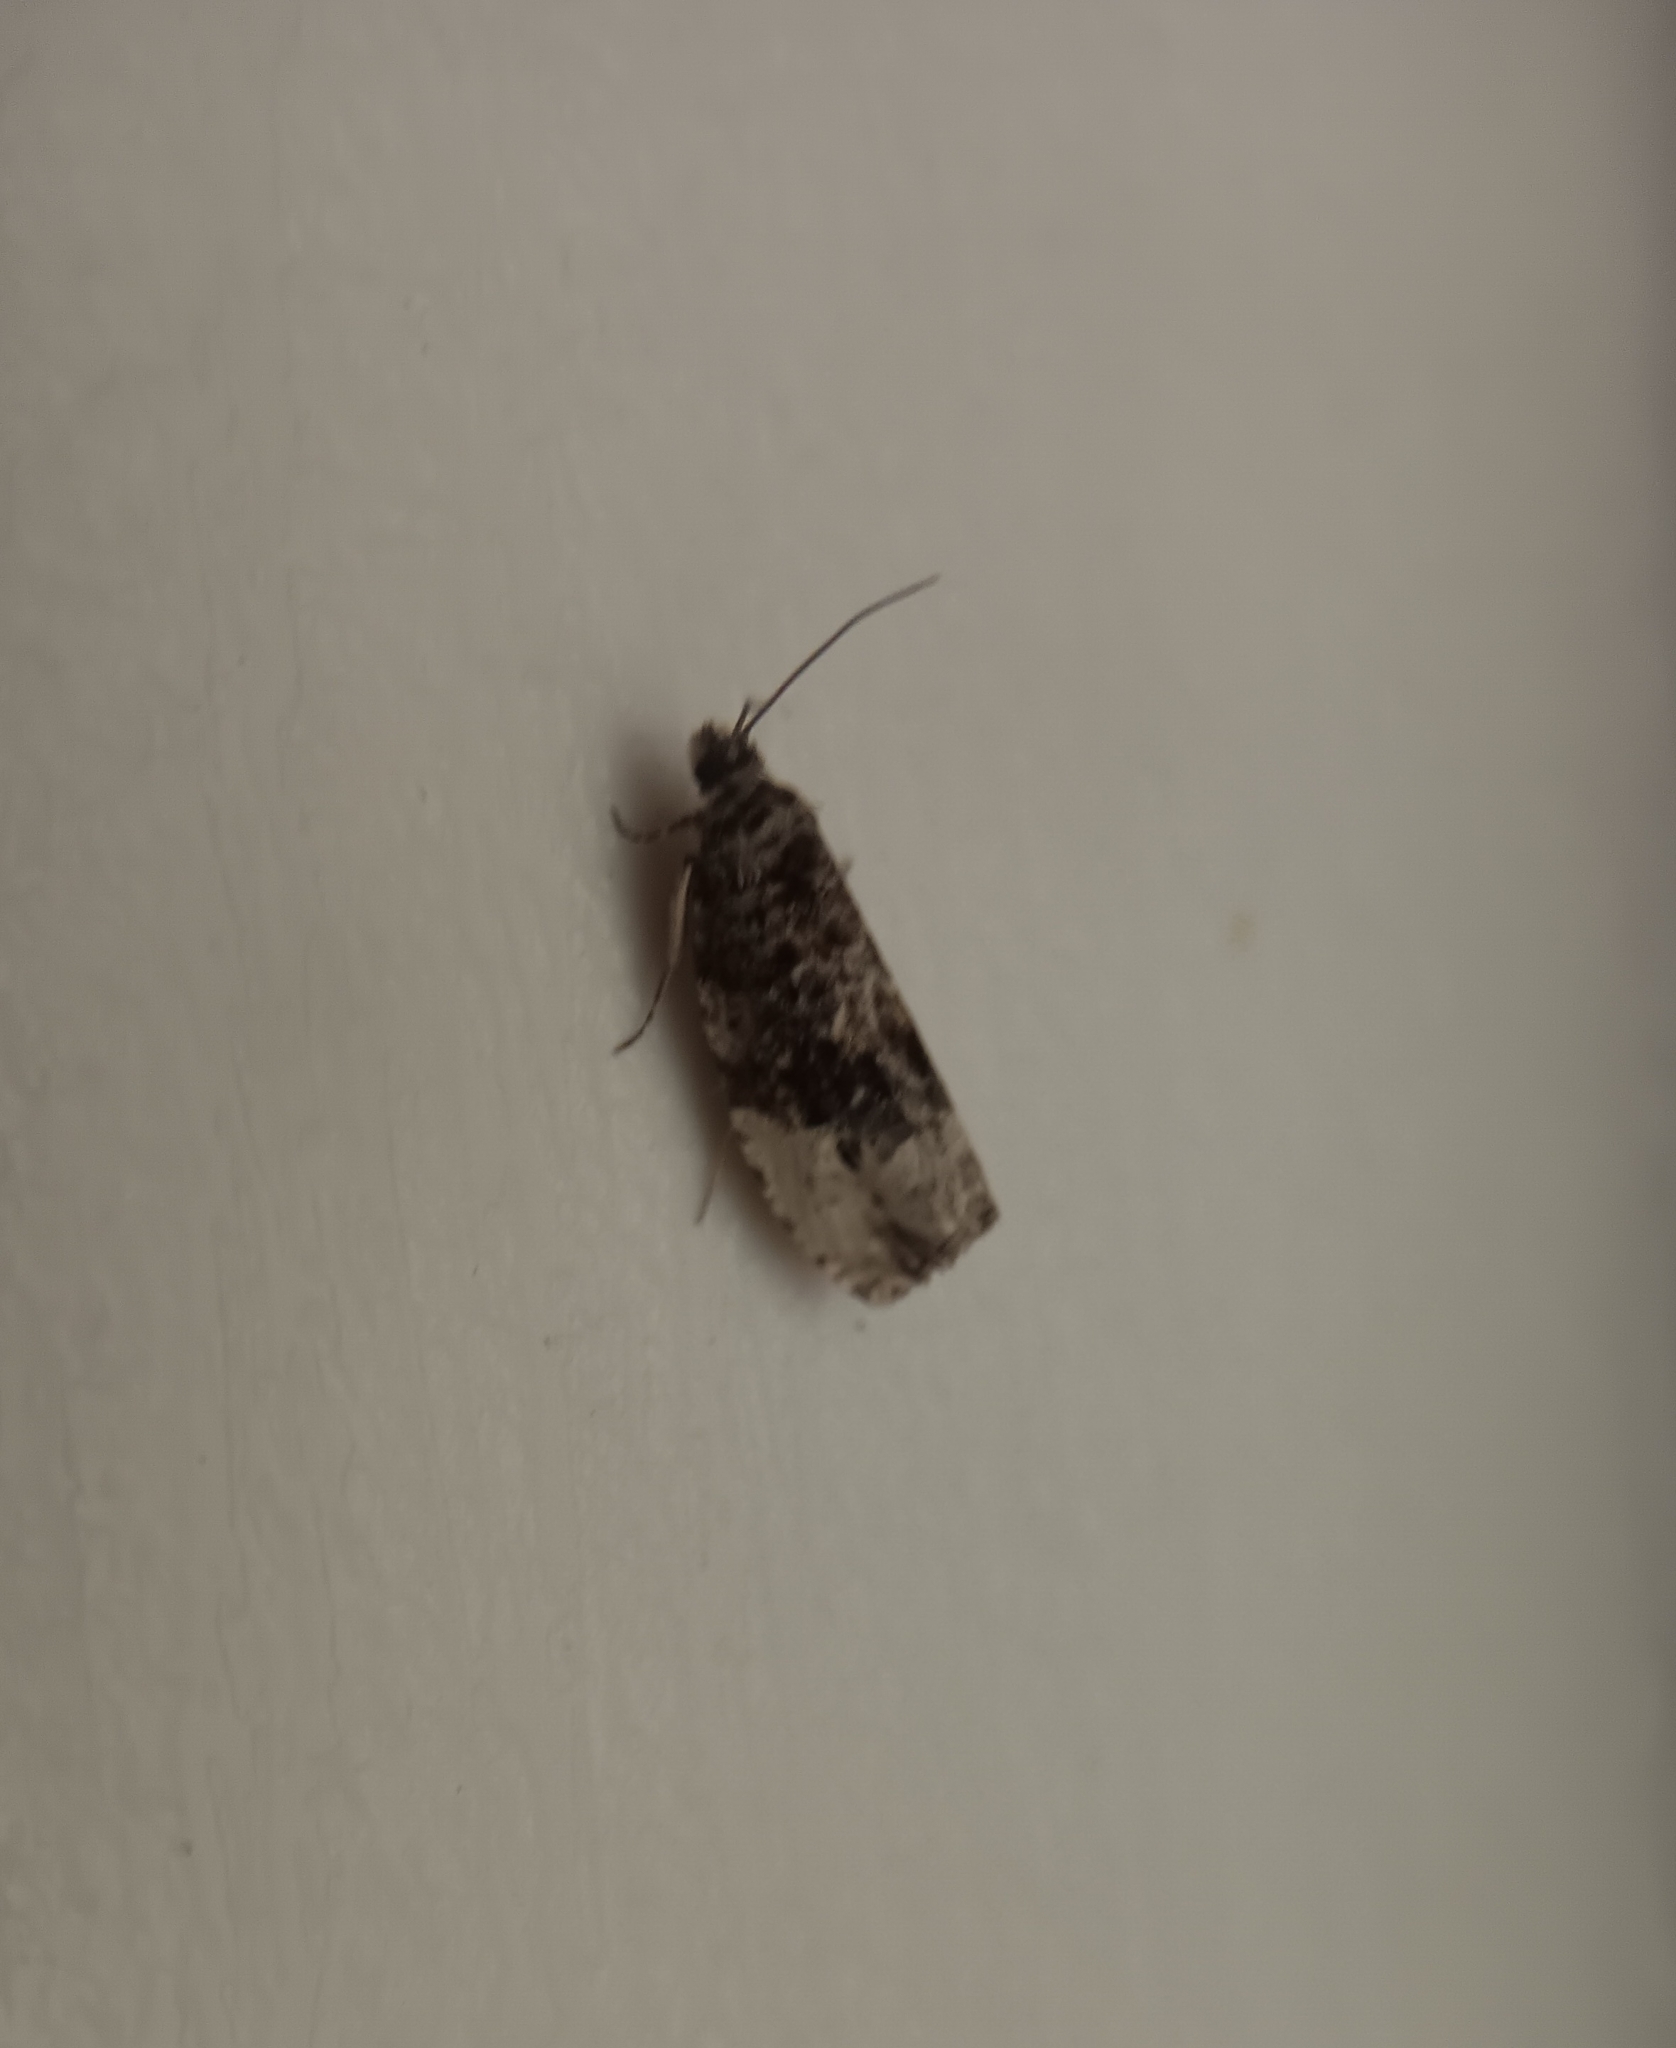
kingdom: Animalia
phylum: Arthropoda
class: Insecta
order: Lepidoptera
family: Tortricidae
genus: Hedya
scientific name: Hedya nubiferana
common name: Marbled orchard tortrix
